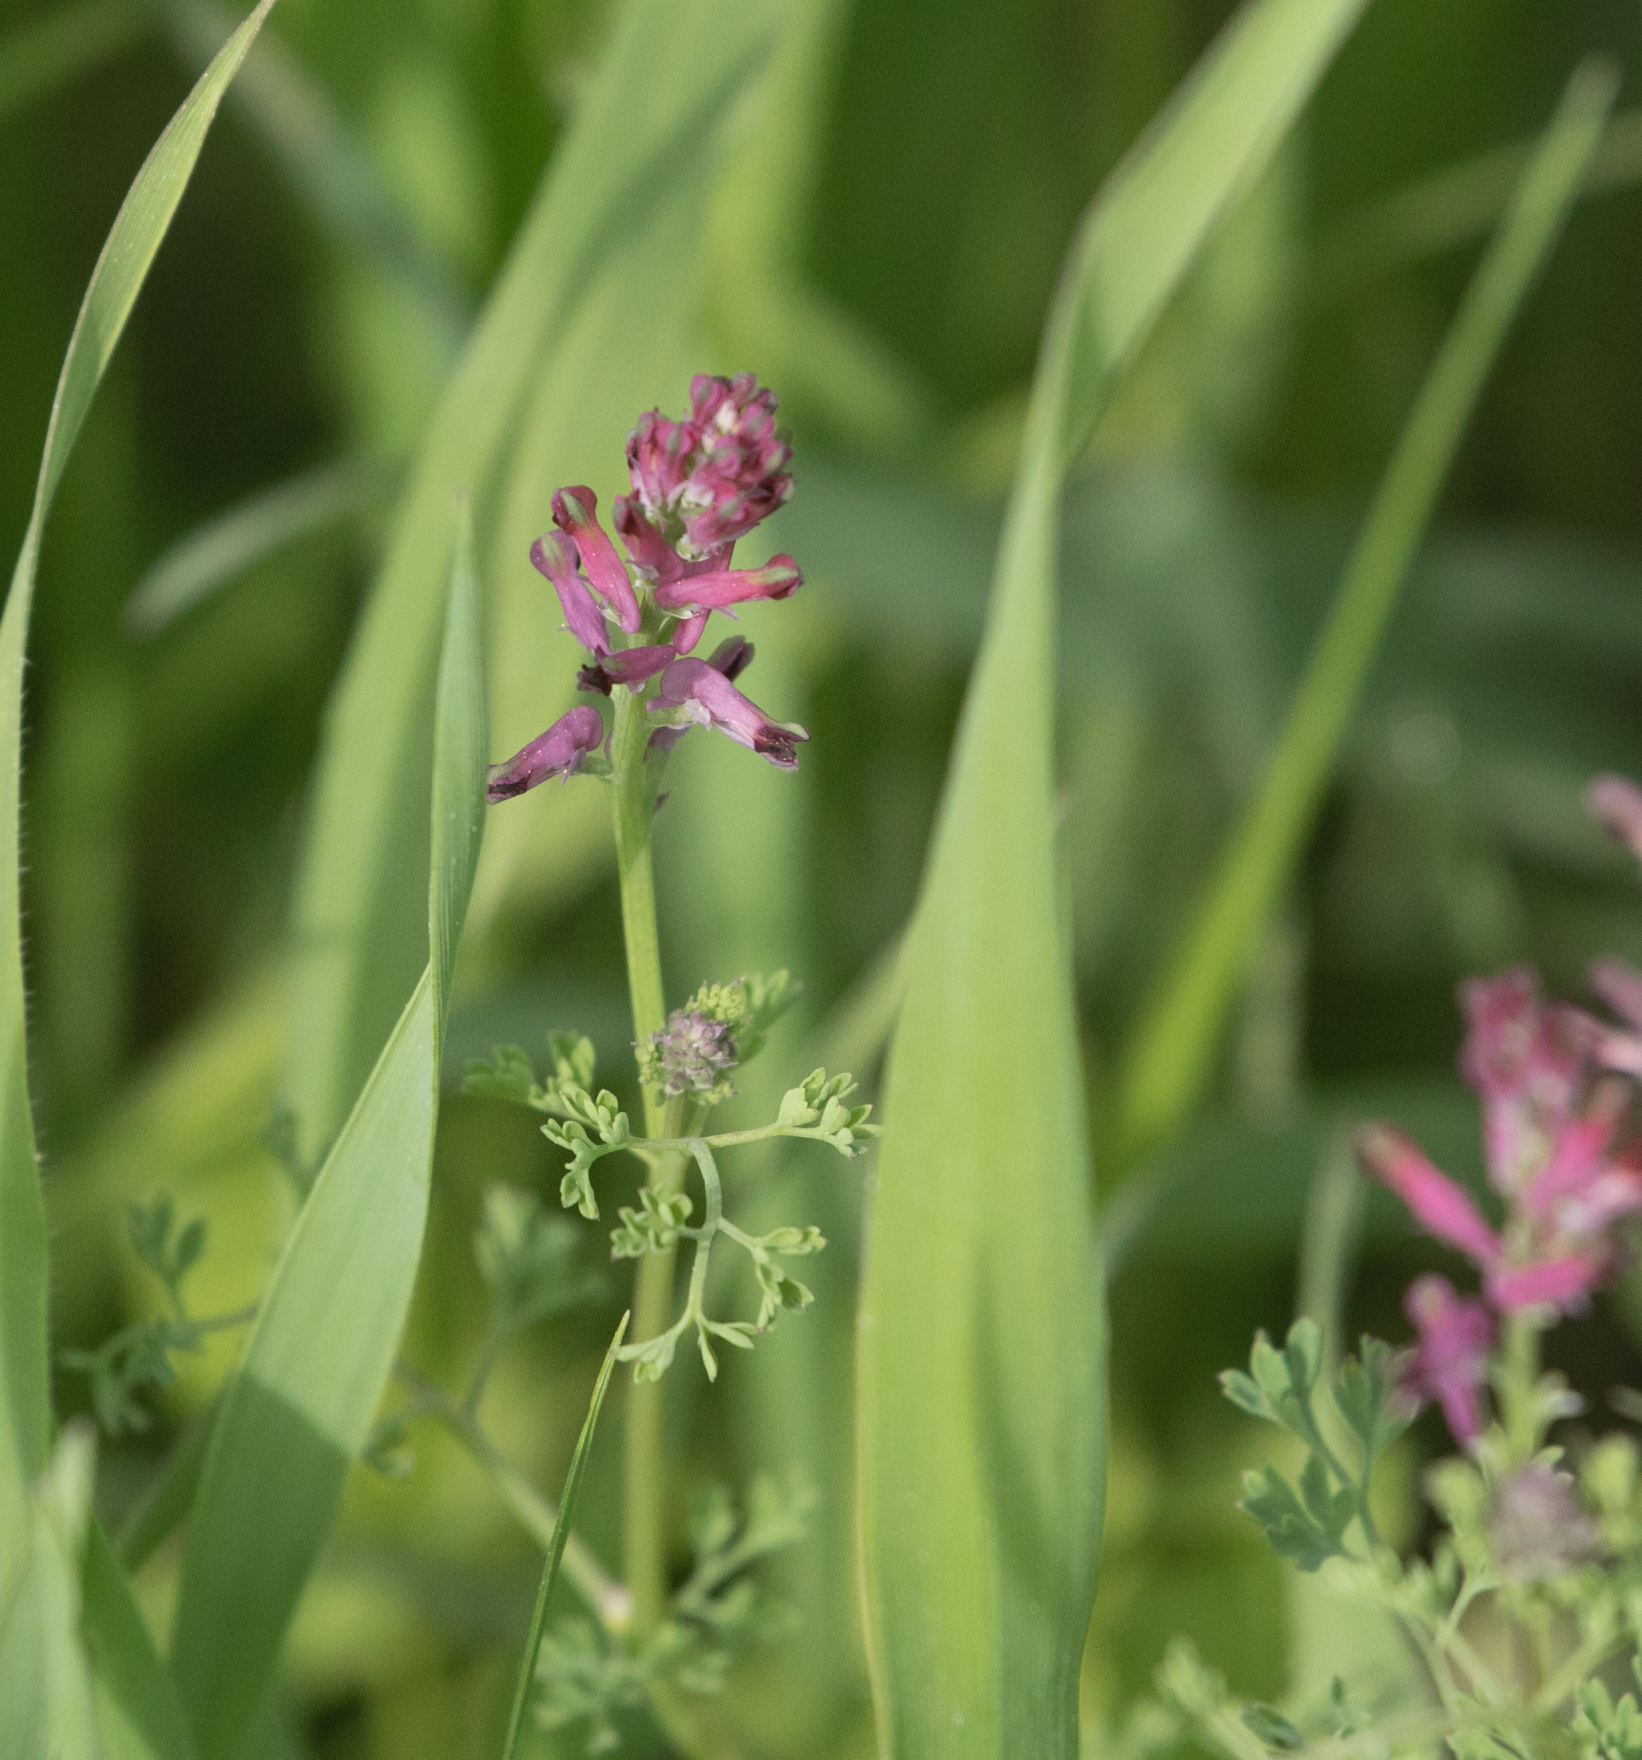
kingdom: Plantae
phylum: Tracheophyta
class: Magnoliopsida
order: Ranunculales
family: Papaveraceae
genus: Fumaria
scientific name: Fumaria officinalis
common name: Common fumitory
